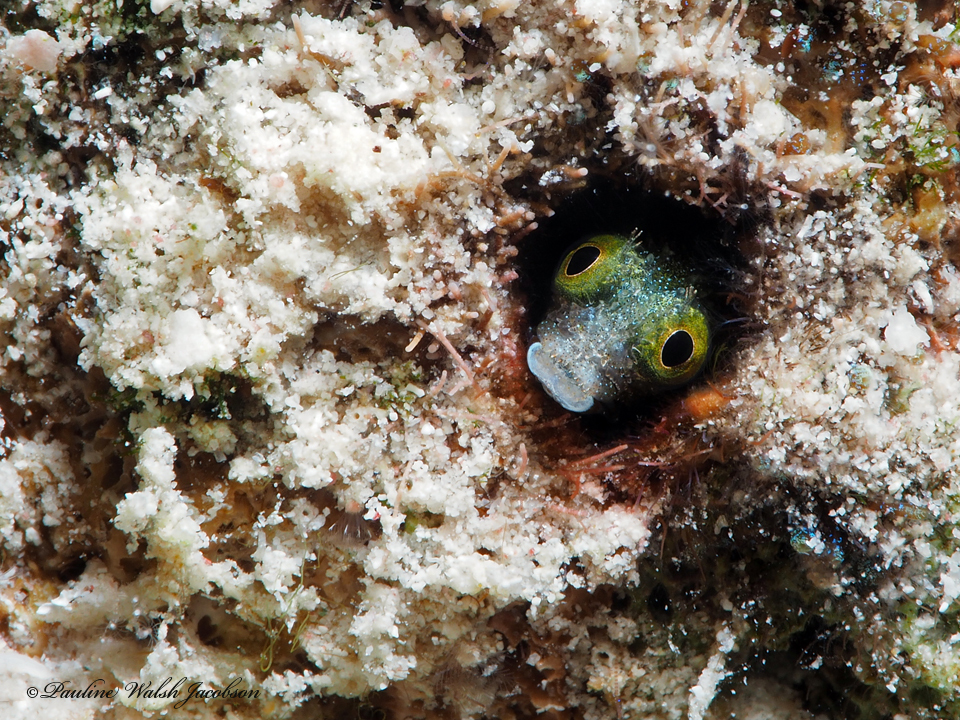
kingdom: Animalia
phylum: Chordata
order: Perciformes
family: Chaenopsidae
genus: Acanthemblemaria
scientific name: Acanthemblemaria spinosa
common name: Spinyhead blenny
